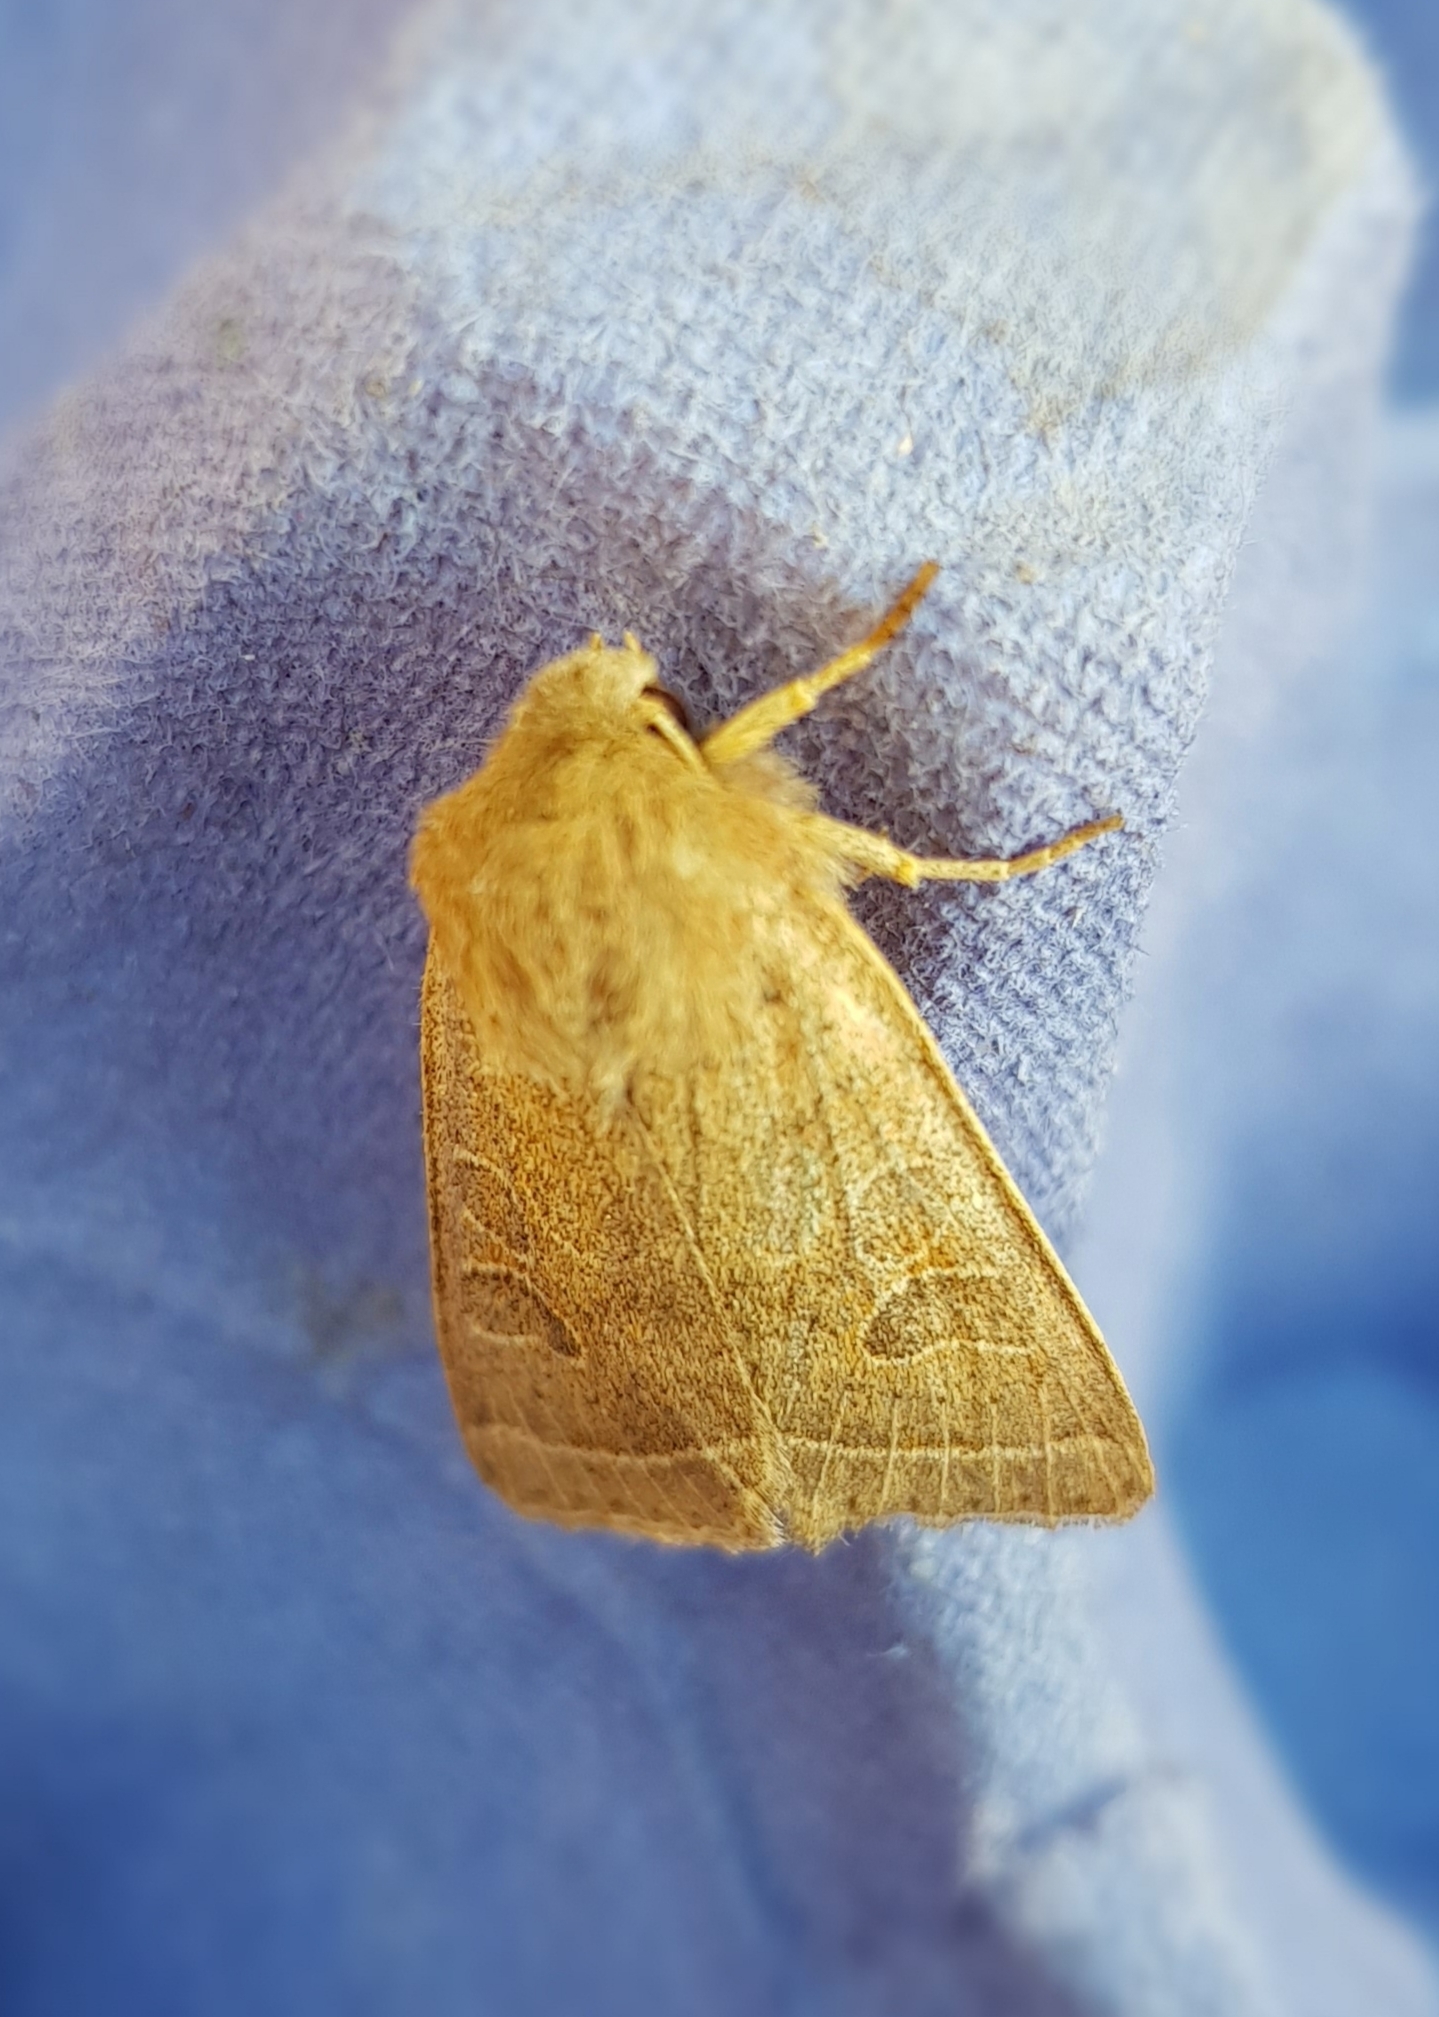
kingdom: Animalia
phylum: Arthropoda
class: Insecta
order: Lepidoptera
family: Noctuidae
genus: Orthosia
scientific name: Orthosia cerasi
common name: Common quaker
